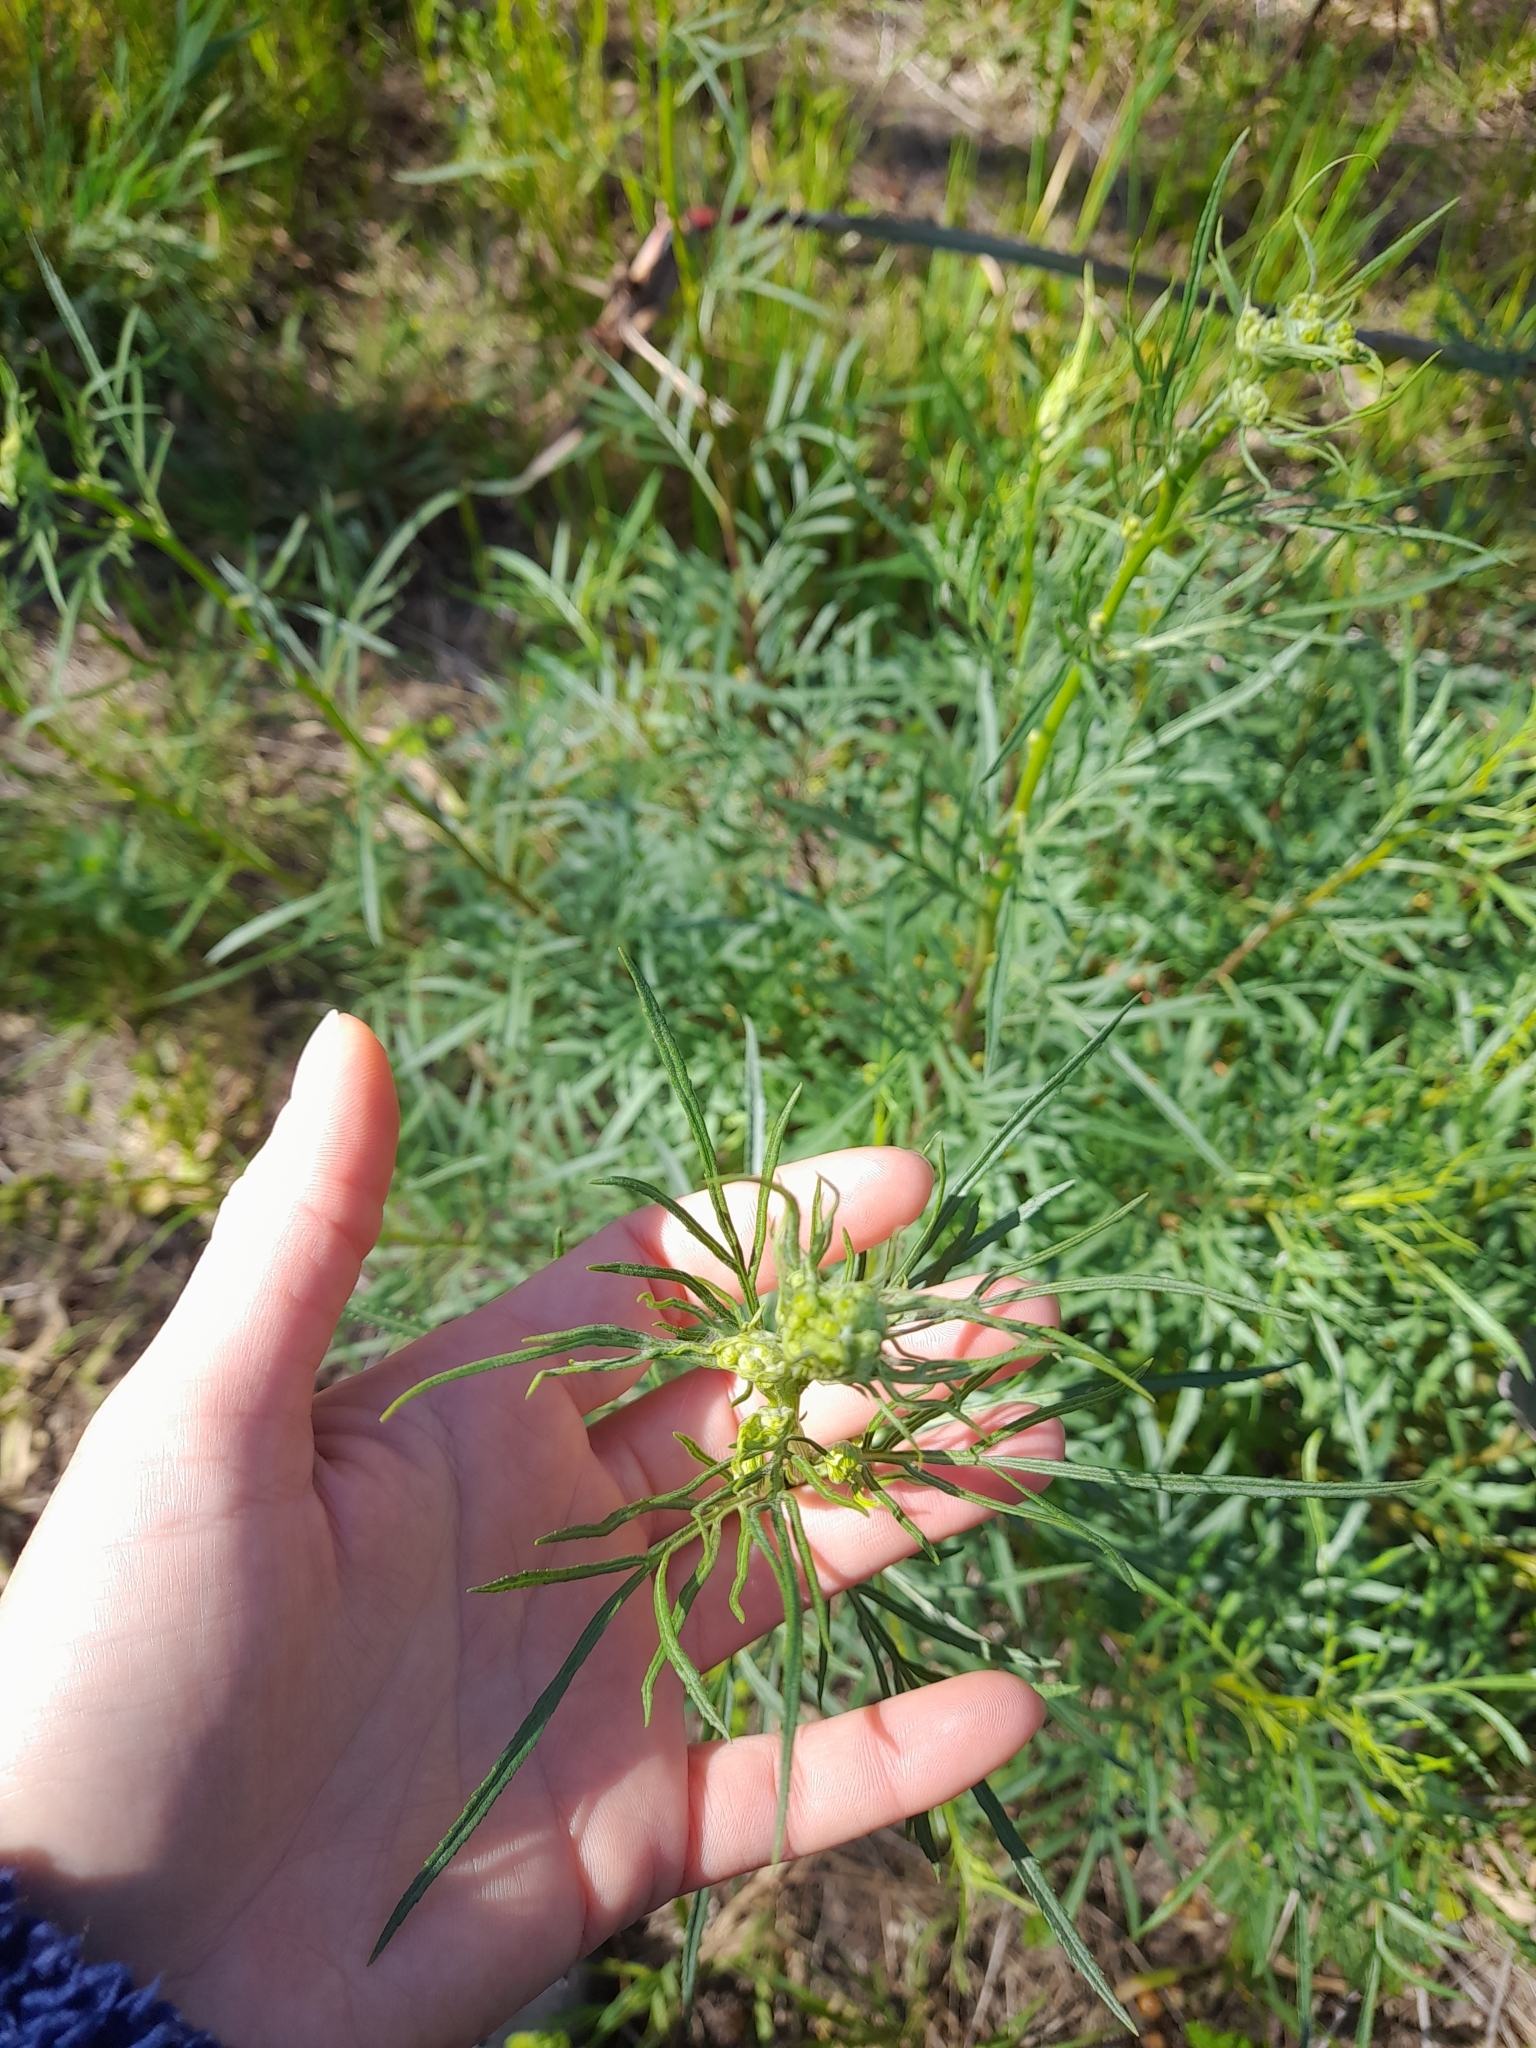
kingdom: Plantae
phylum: Tracheophyta
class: Magnoliopsida
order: Asterales
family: Asteraceae
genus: Senecio
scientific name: Senecio brasiliensis
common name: Hemp-leaf ragwort
